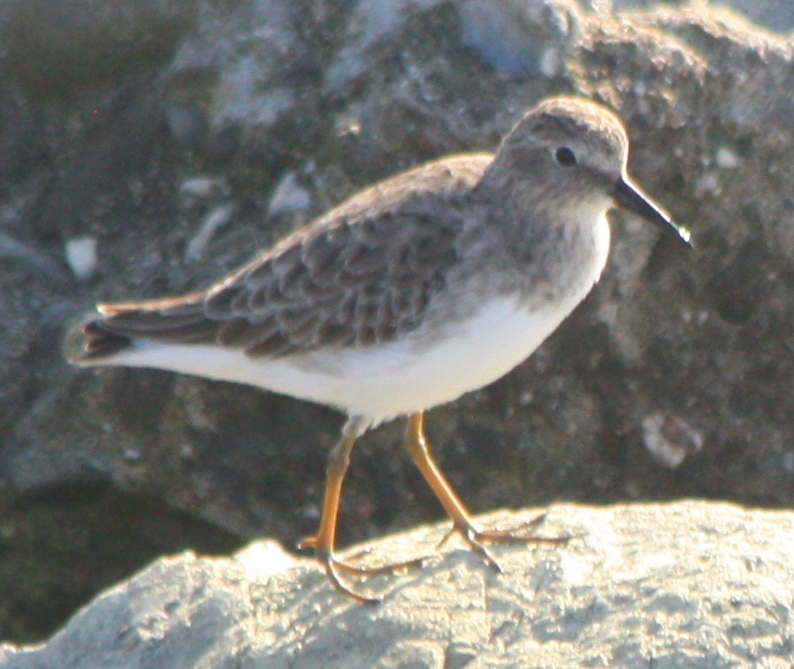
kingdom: Animalia
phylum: Chordata
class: Aves
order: Charadriiformes
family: Scolopacidae
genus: Calidris
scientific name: Calidris minutilla
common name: Least sandpiper
